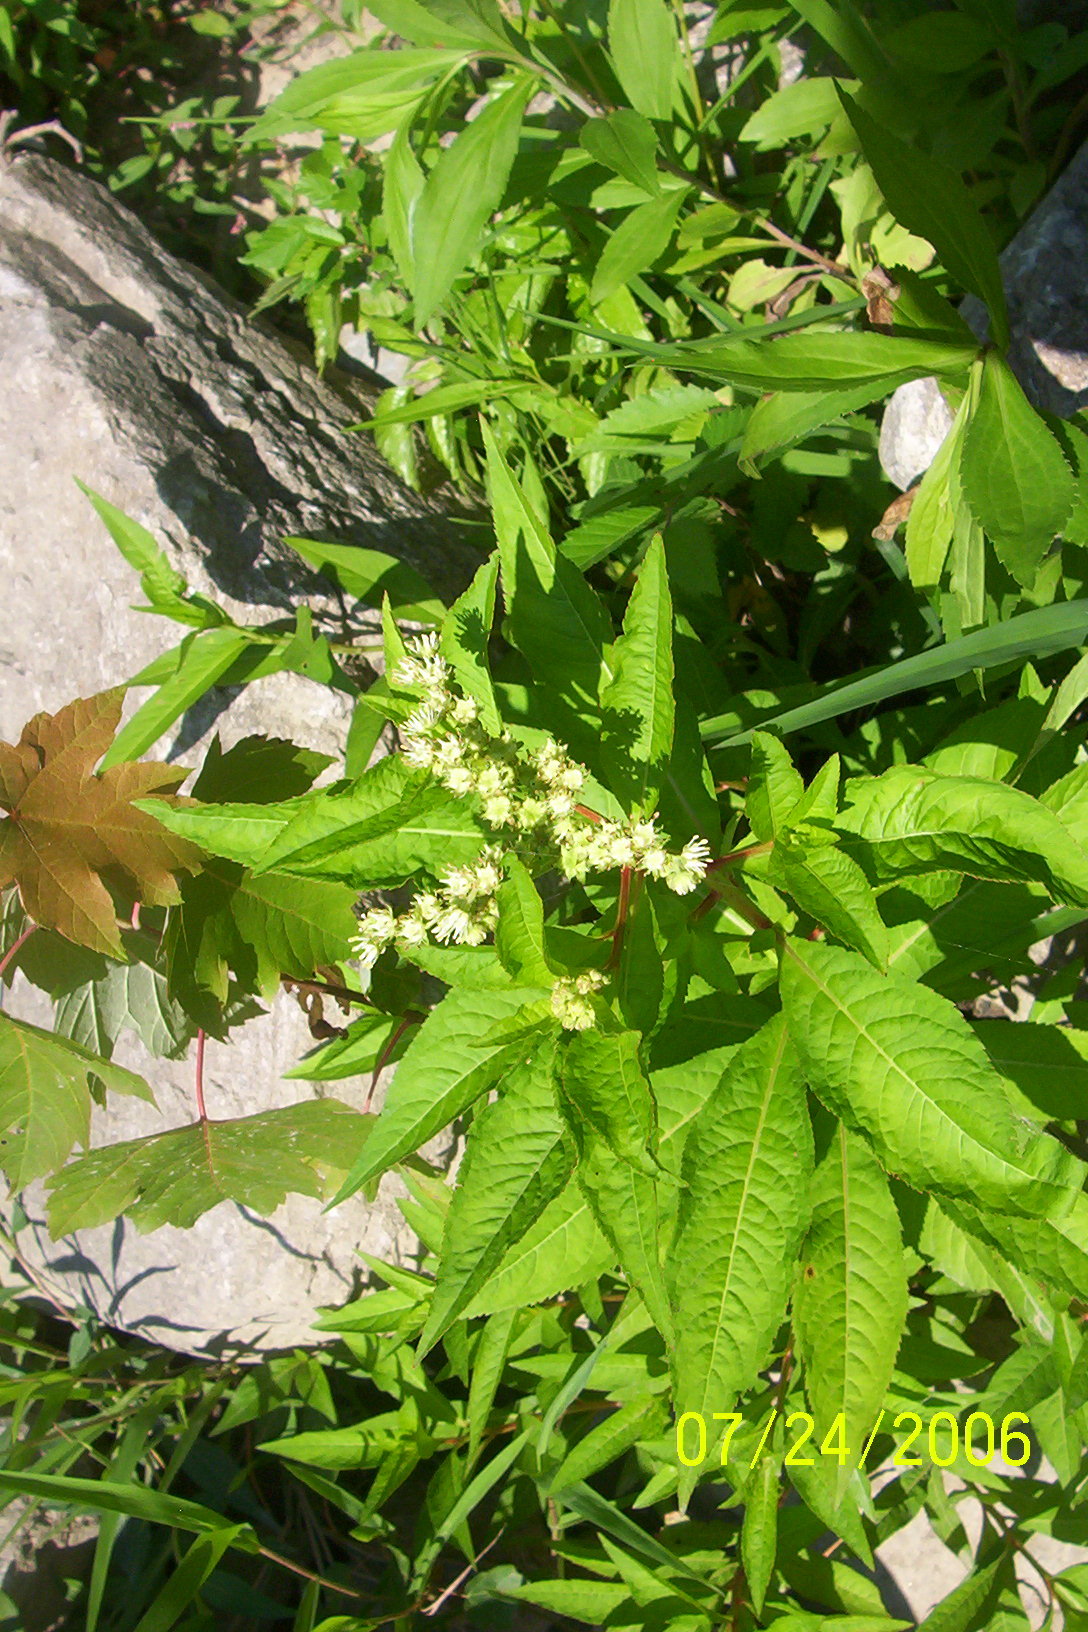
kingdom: Plantae
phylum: Tracheophyta
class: Magnoliopsida
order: Saxifragales
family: Penthoraceae
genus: Penthorum
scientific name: Penthorum sedoides
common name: Ditch stonecrop
